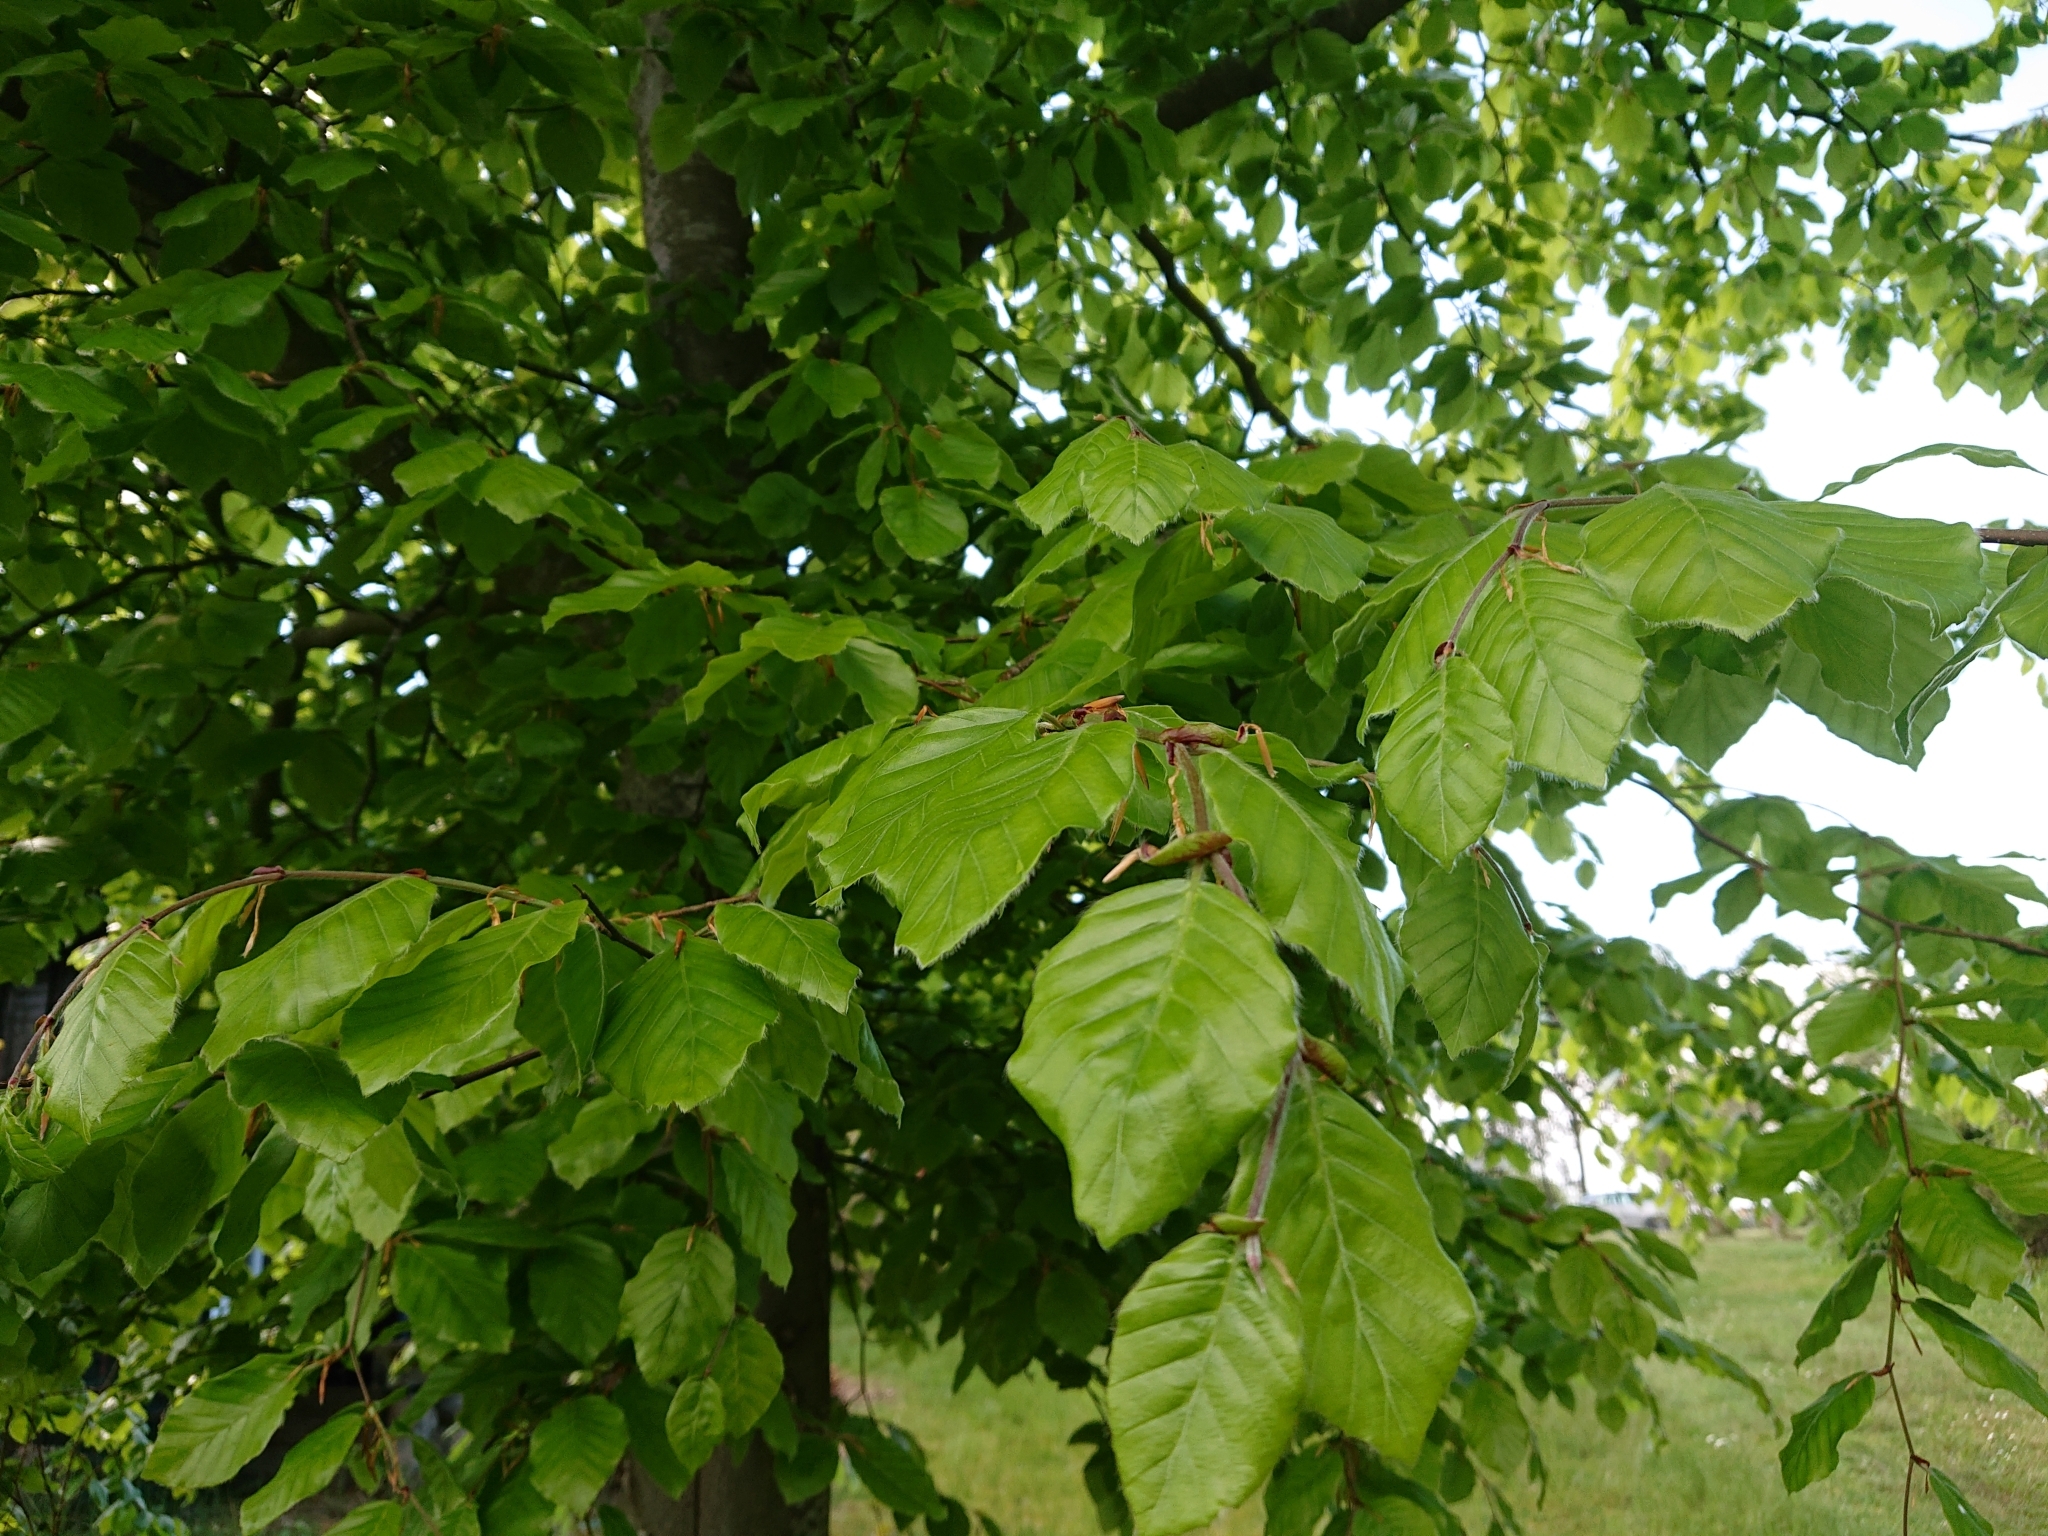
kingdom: Plantae
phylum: Tracheophyta
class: Magnoliopsida
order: Fagales
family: Fagaceae
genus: Fagus
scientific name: Fagus sylvatica
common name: Beech
